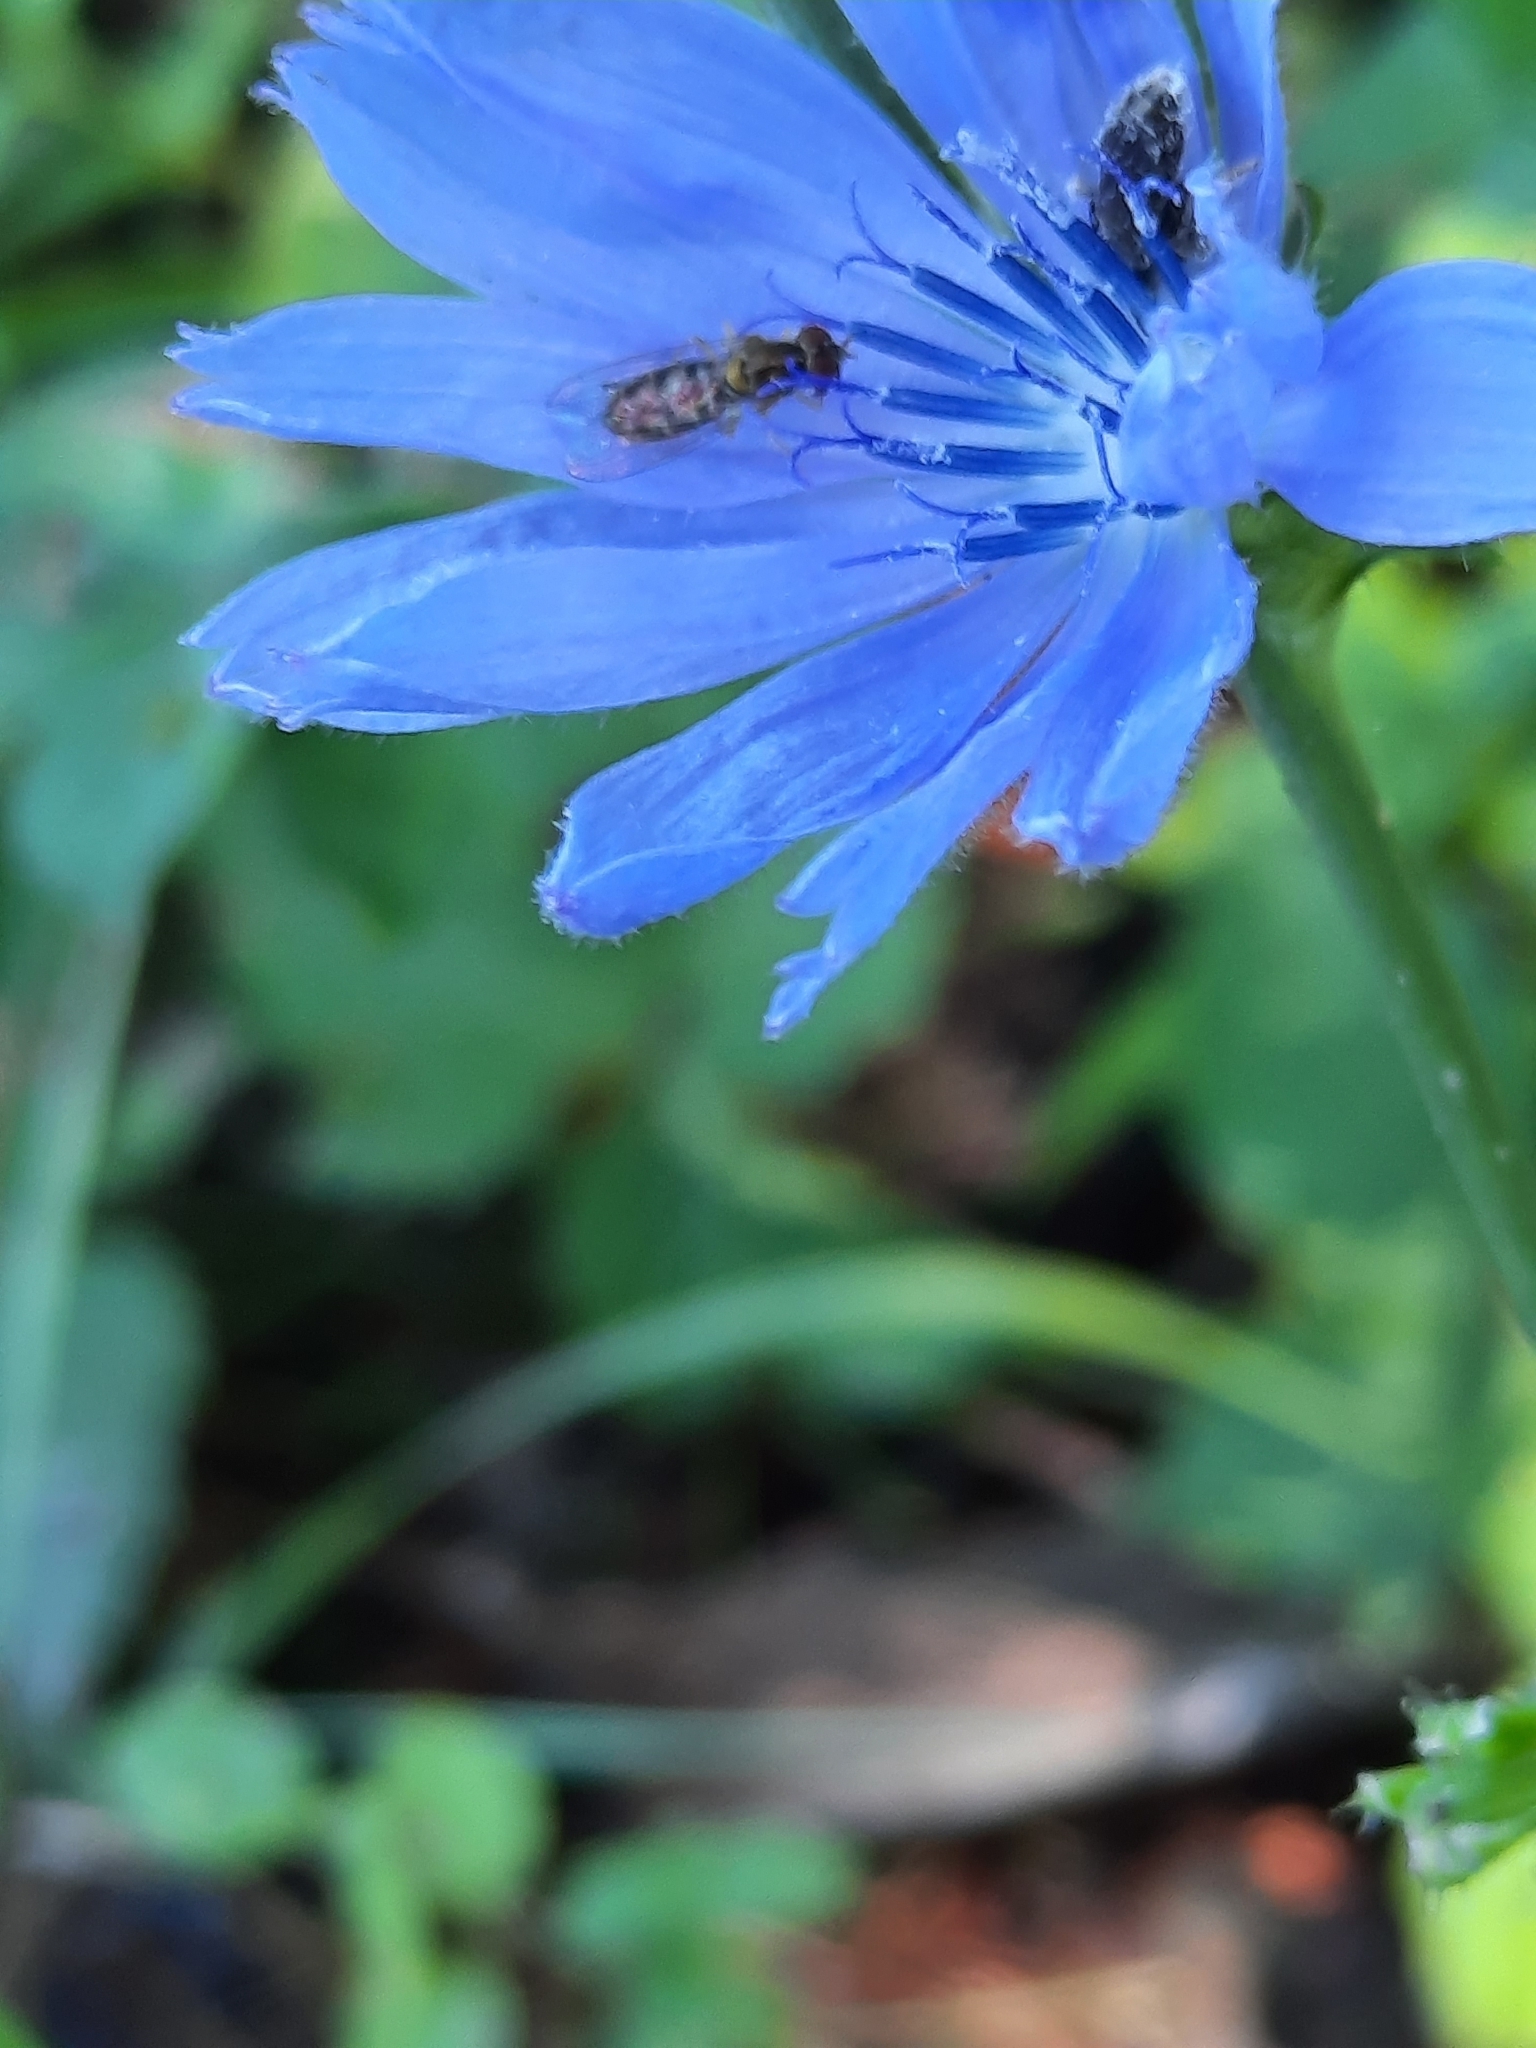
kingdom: Animalia
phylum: Arthropoda
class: Insecta
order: Diptera
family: Syrphidae
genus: Toxomerus
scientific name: Toxomerus marginatus
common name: Syrphid fly
